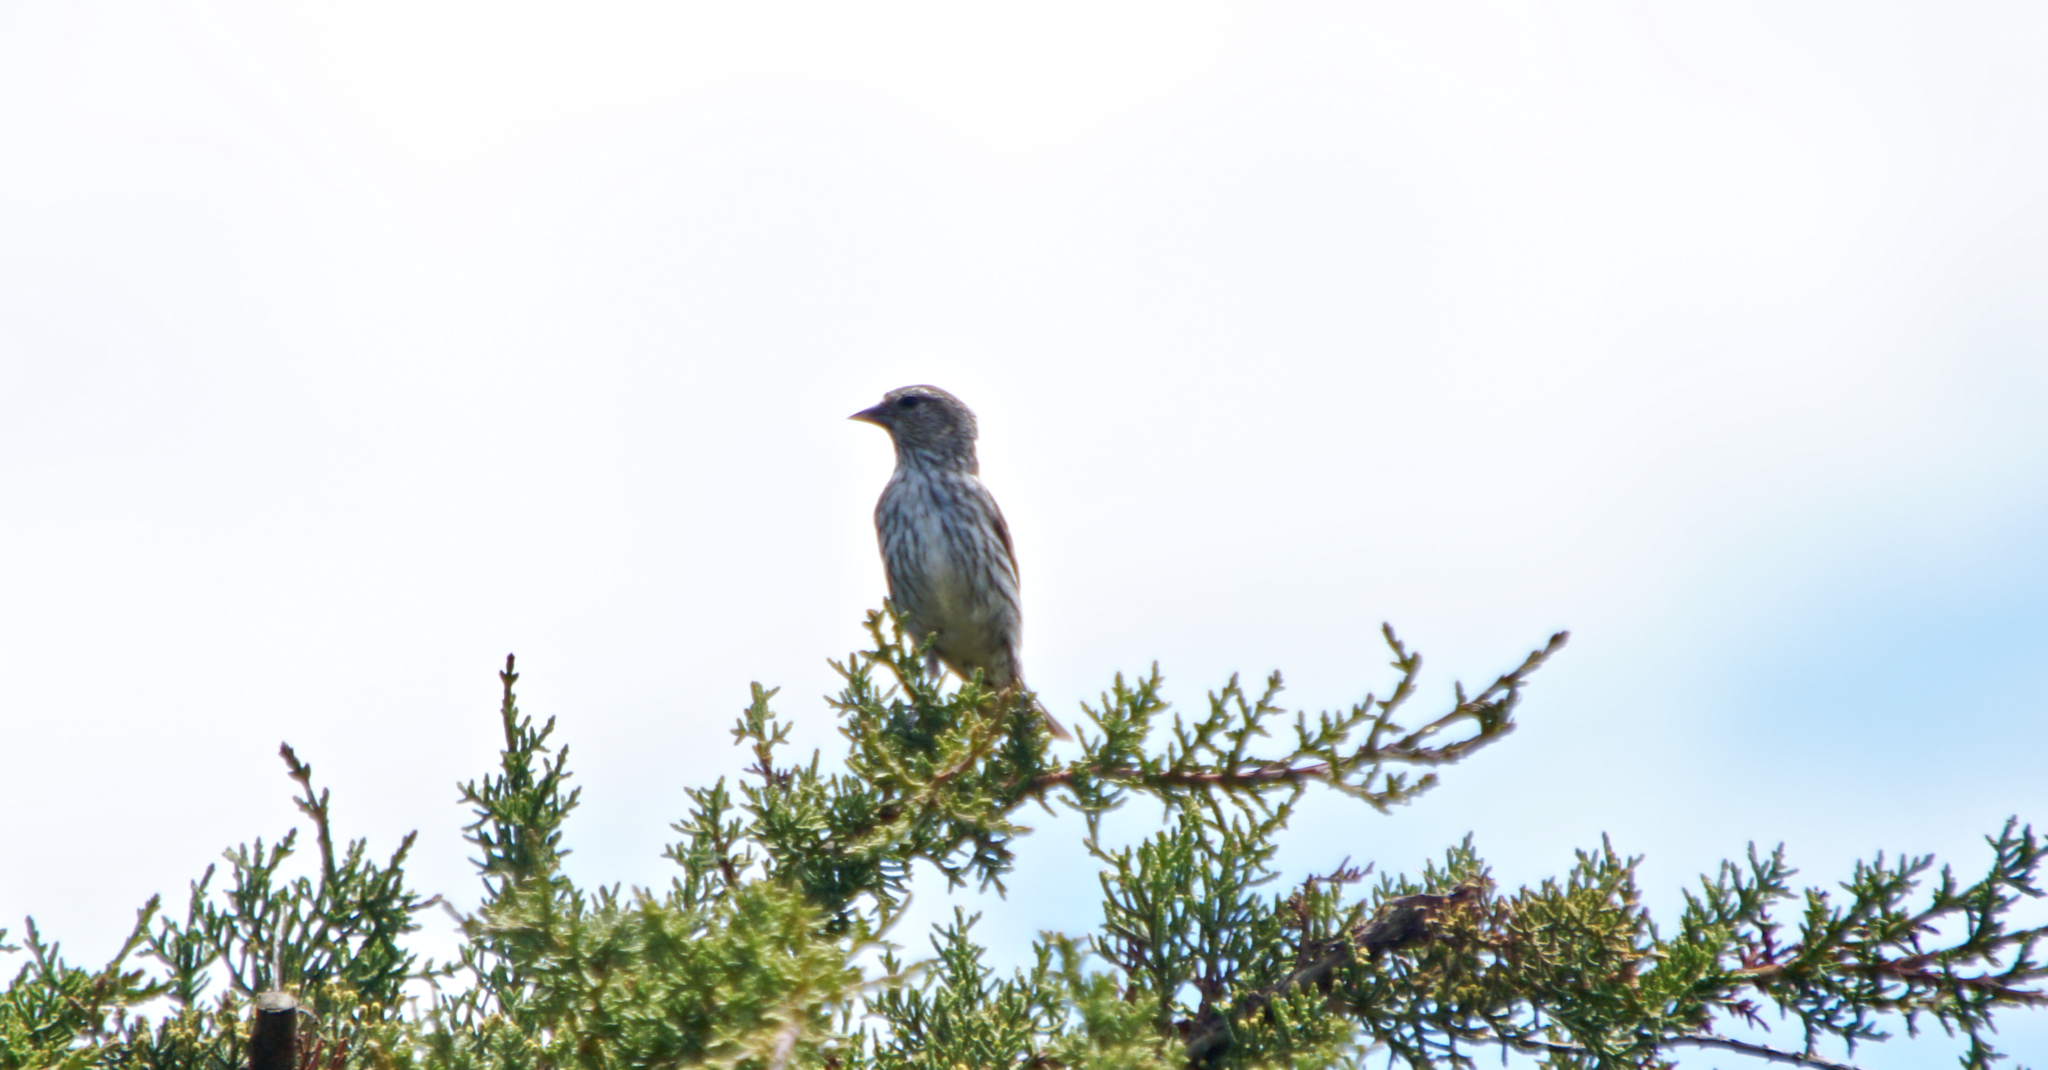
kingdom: Animalia
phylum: Chordata
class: Aves
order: Passeriformes
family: Fringillidae
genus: Spinus
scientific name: Spinus pinus
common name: Pine siskin
